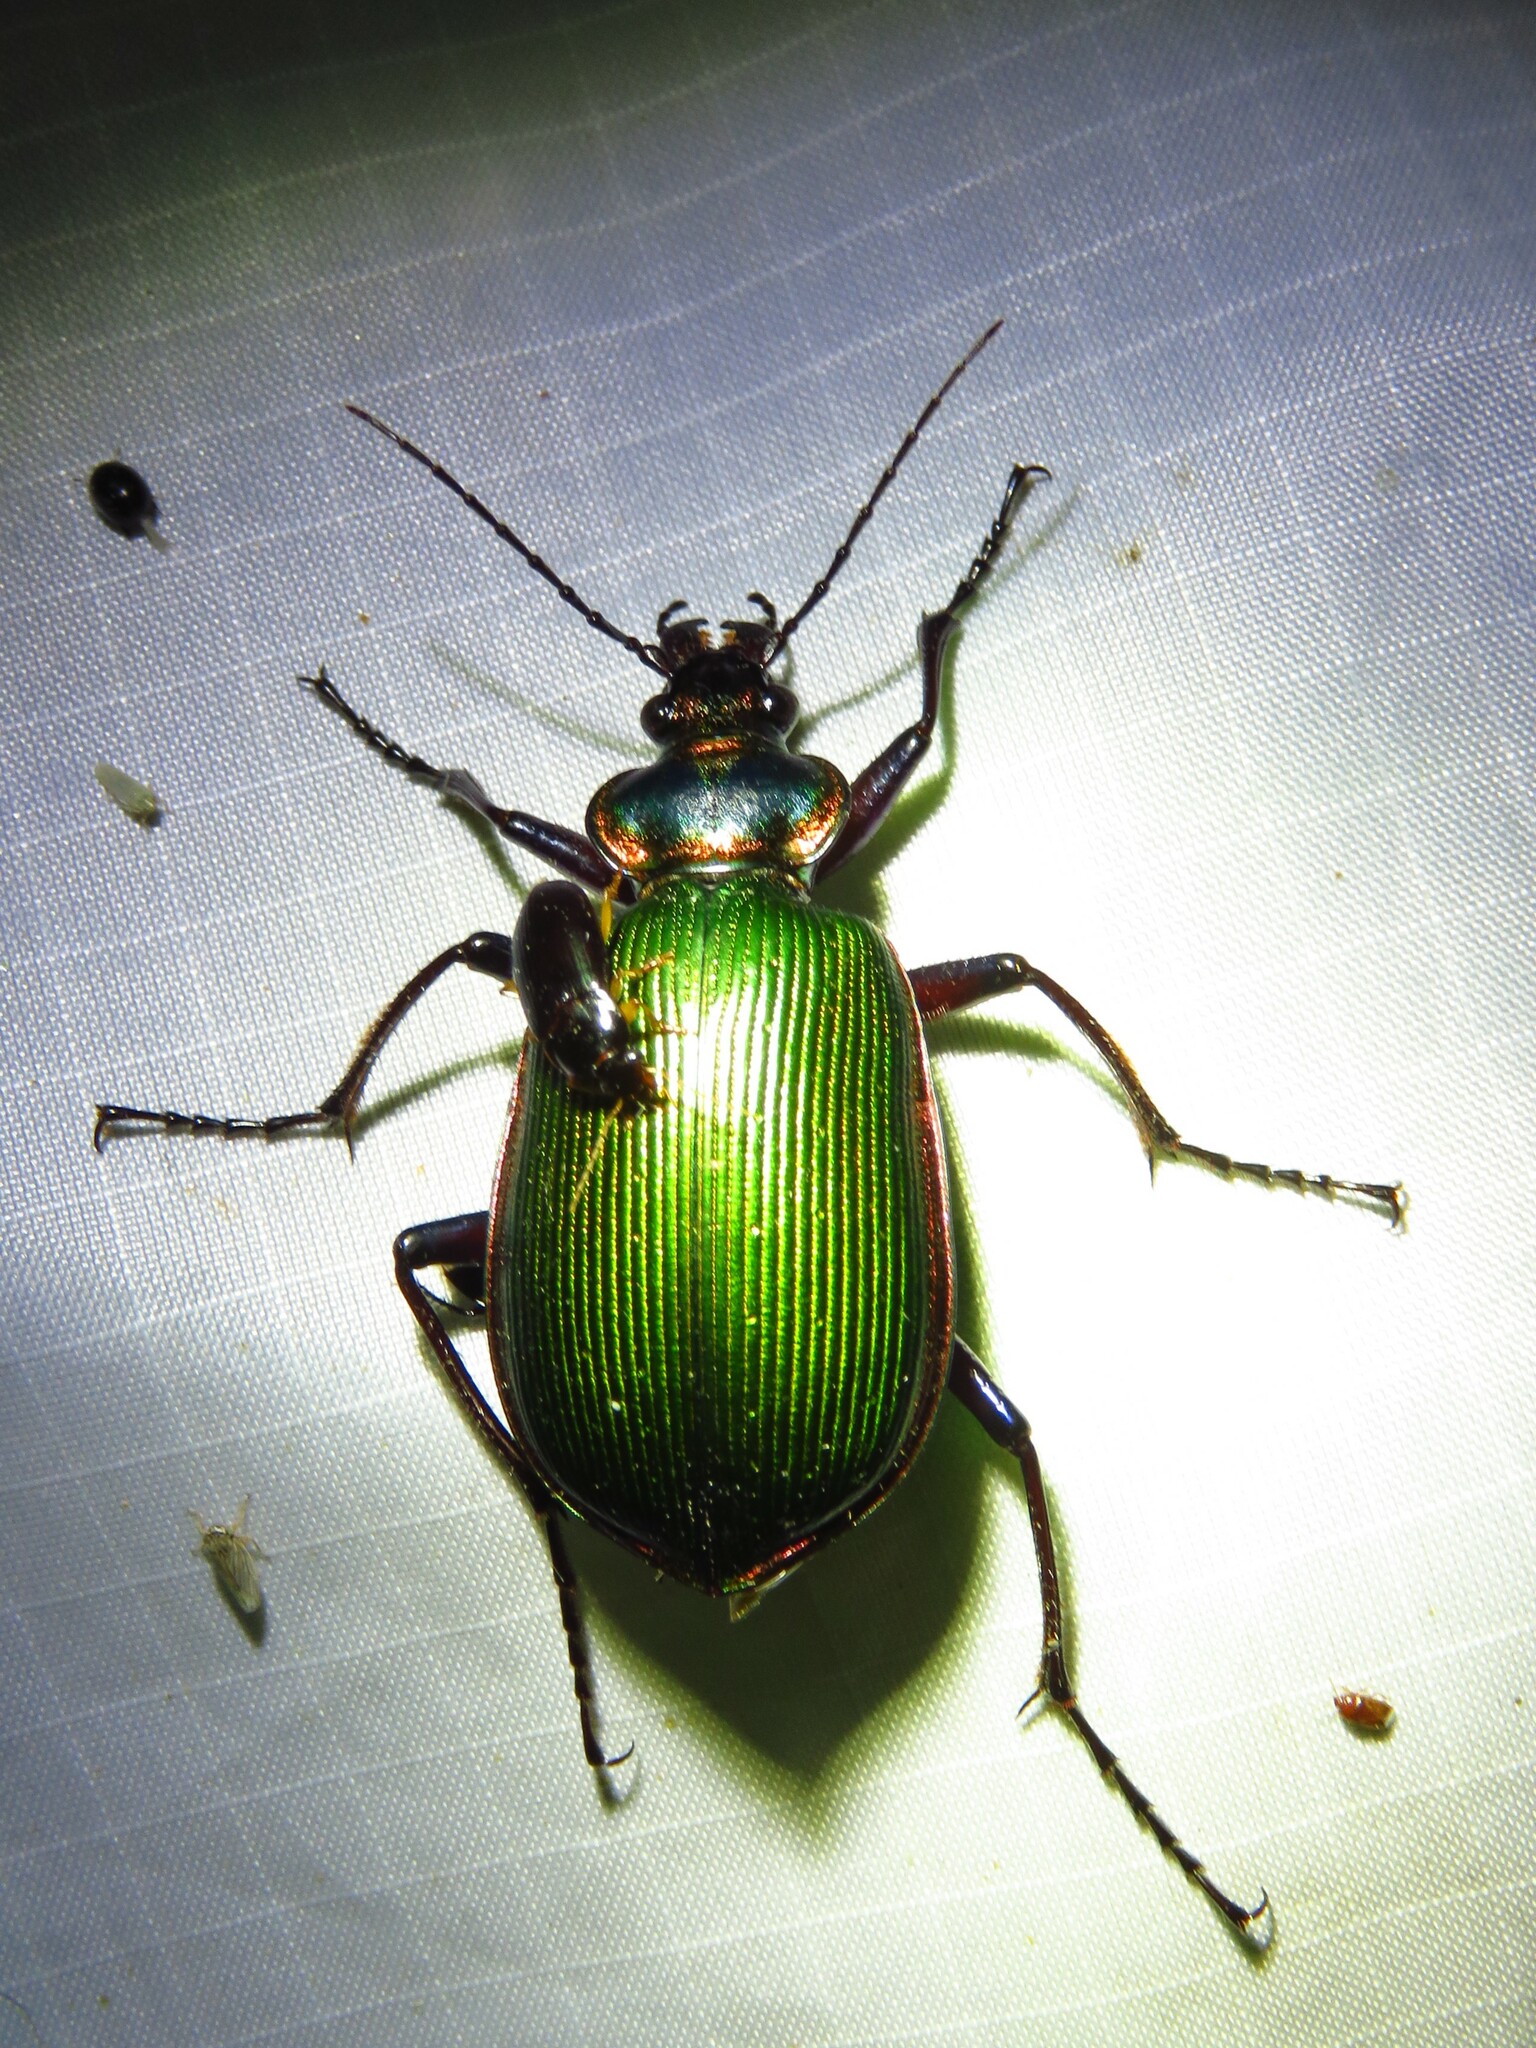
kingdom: Animalia
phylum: Arthropoda
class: Insecta
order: Coleoptera
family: Carabidae
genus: Calosoma
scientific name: Calosoma scrutator
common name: Fiery searcher beetle
